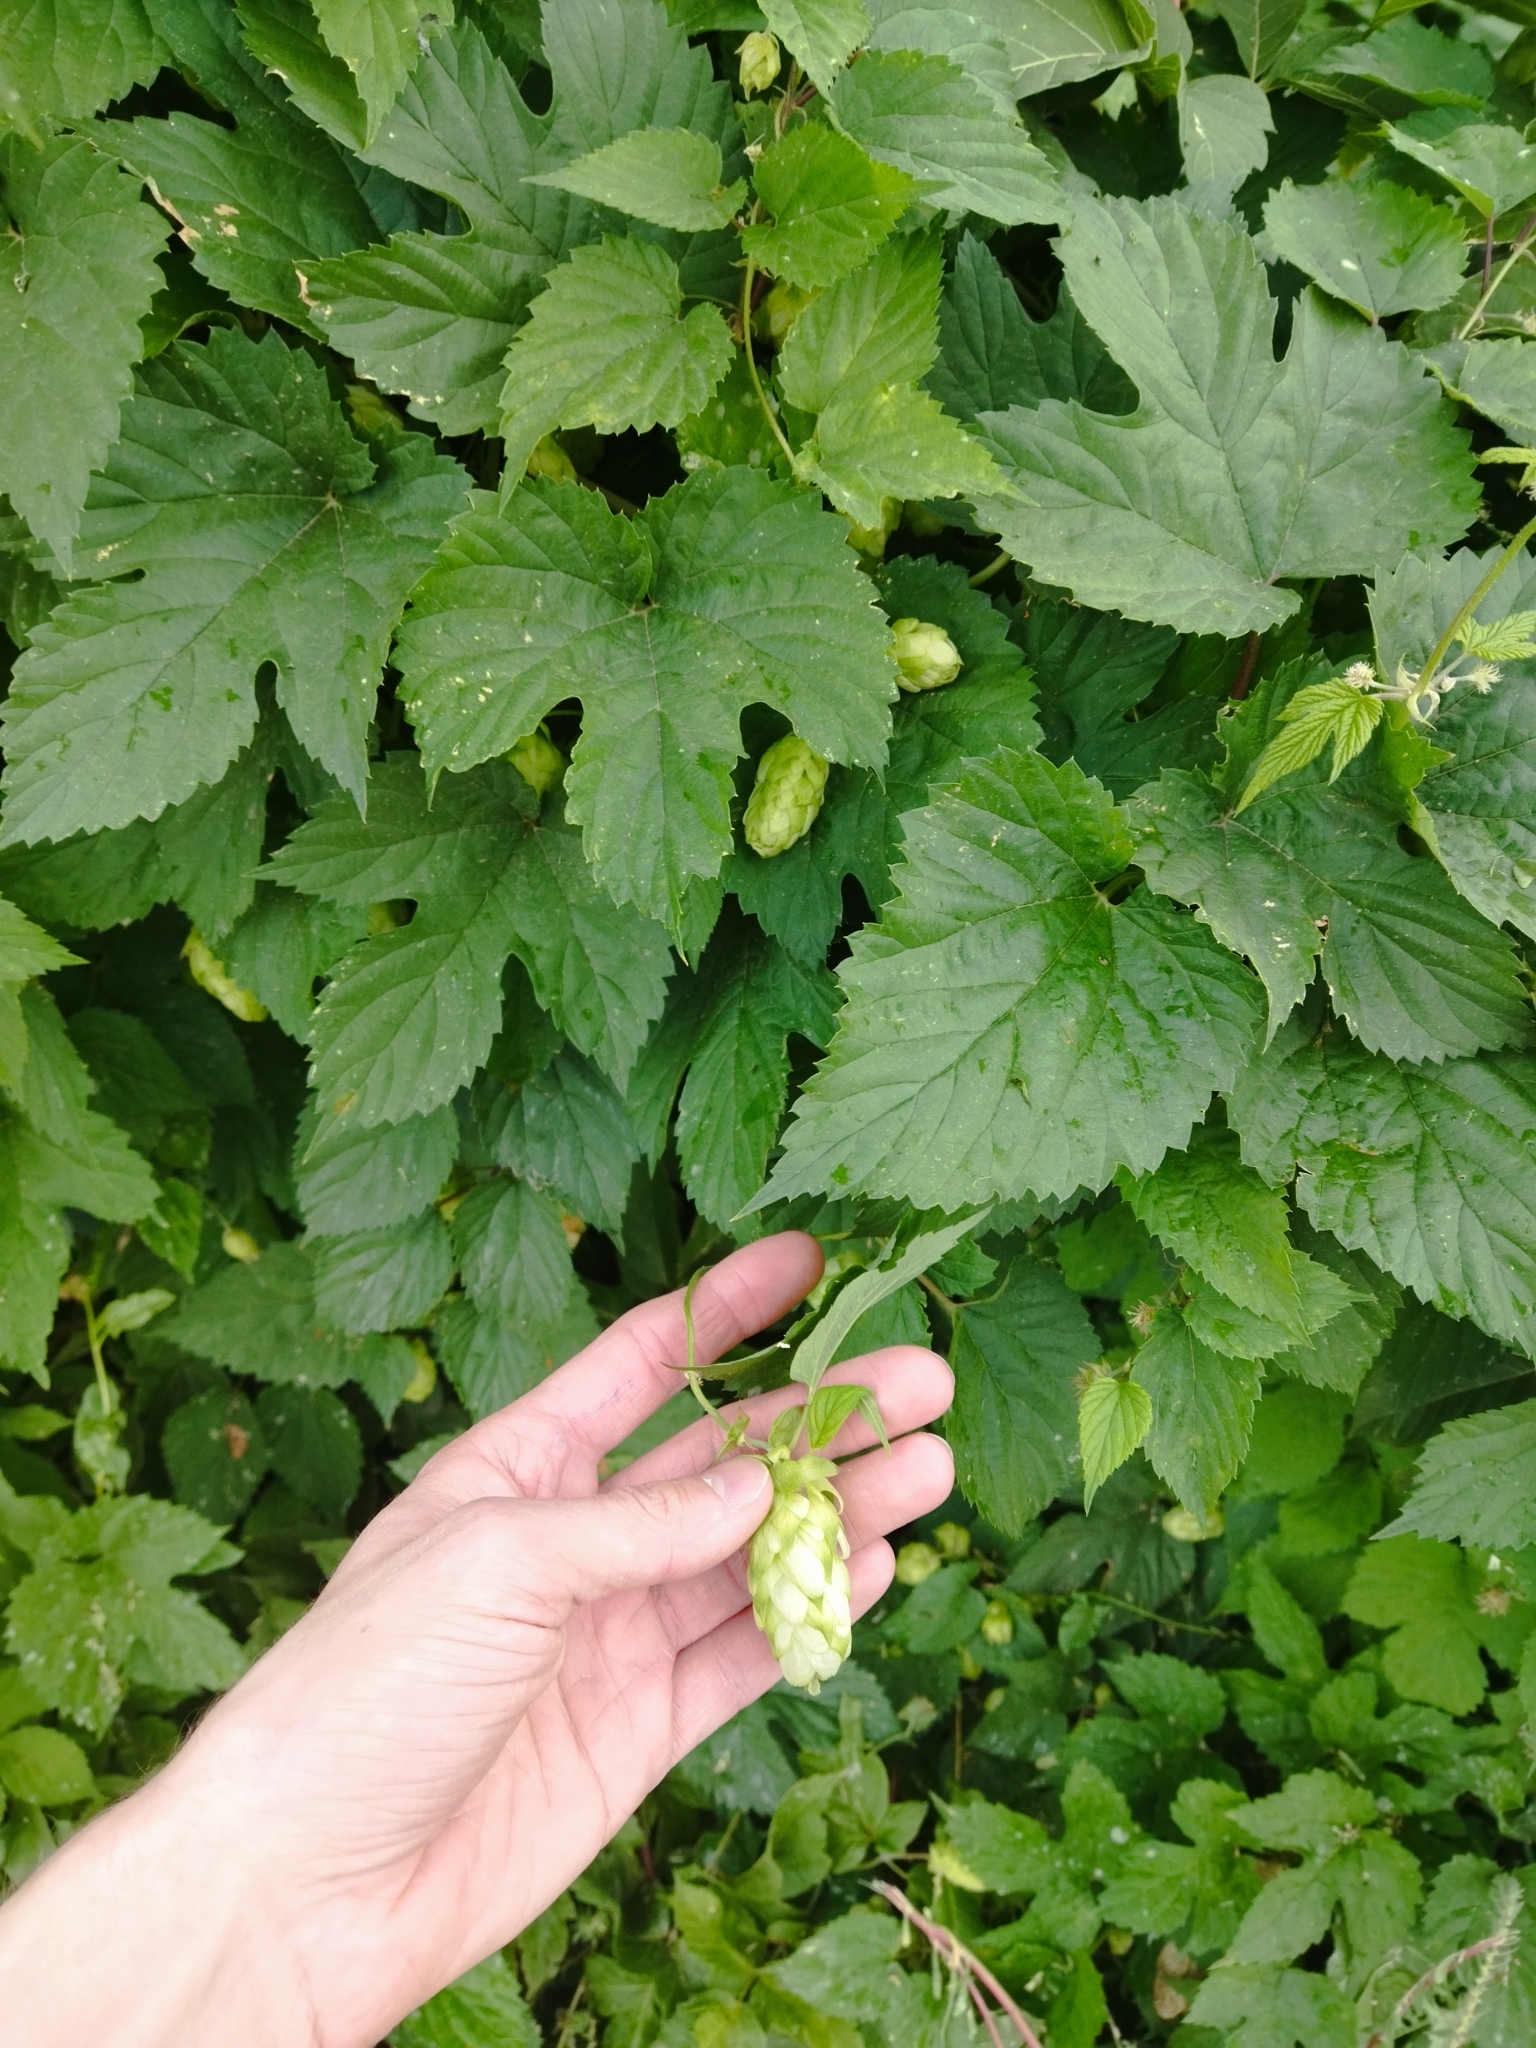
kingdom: Plantae
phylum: Tracheophyta
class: Magnoliopsida
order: Rosales
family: Cannabaceae
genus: Humulus
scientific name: Humulus lupulus
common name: Hop
